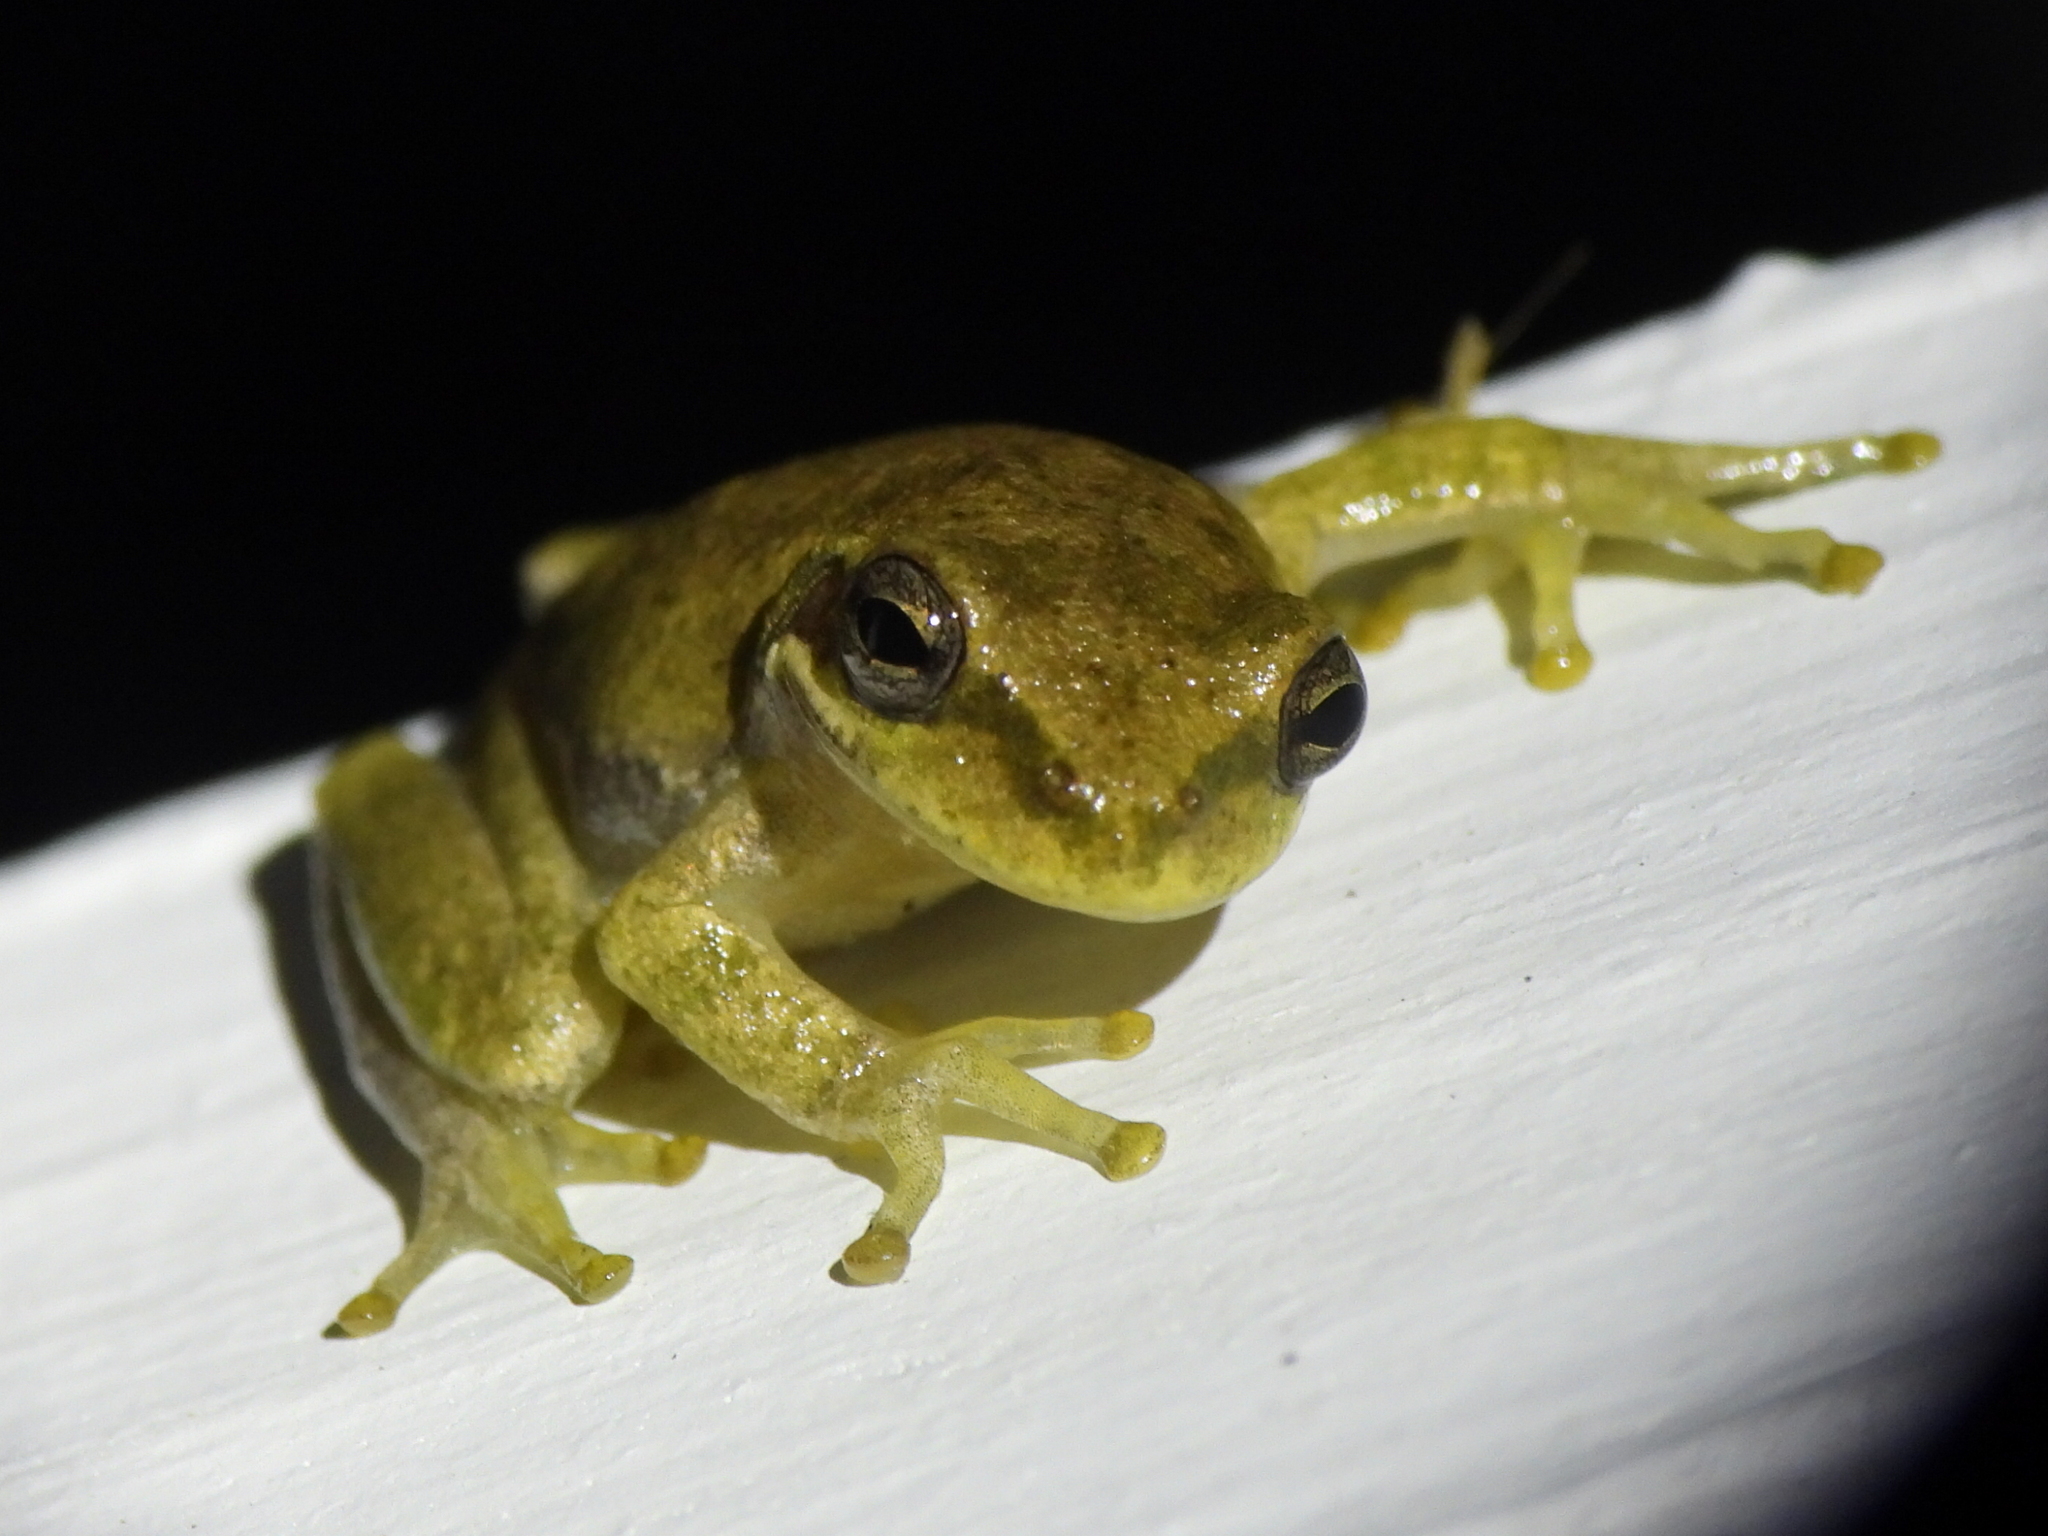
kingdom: Animalia
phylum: Chordata
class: Amphibia
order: Anura
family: Hylidae
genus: Dryophytes
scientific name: Dryophytes squirellus
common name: Squirrel treefrog
